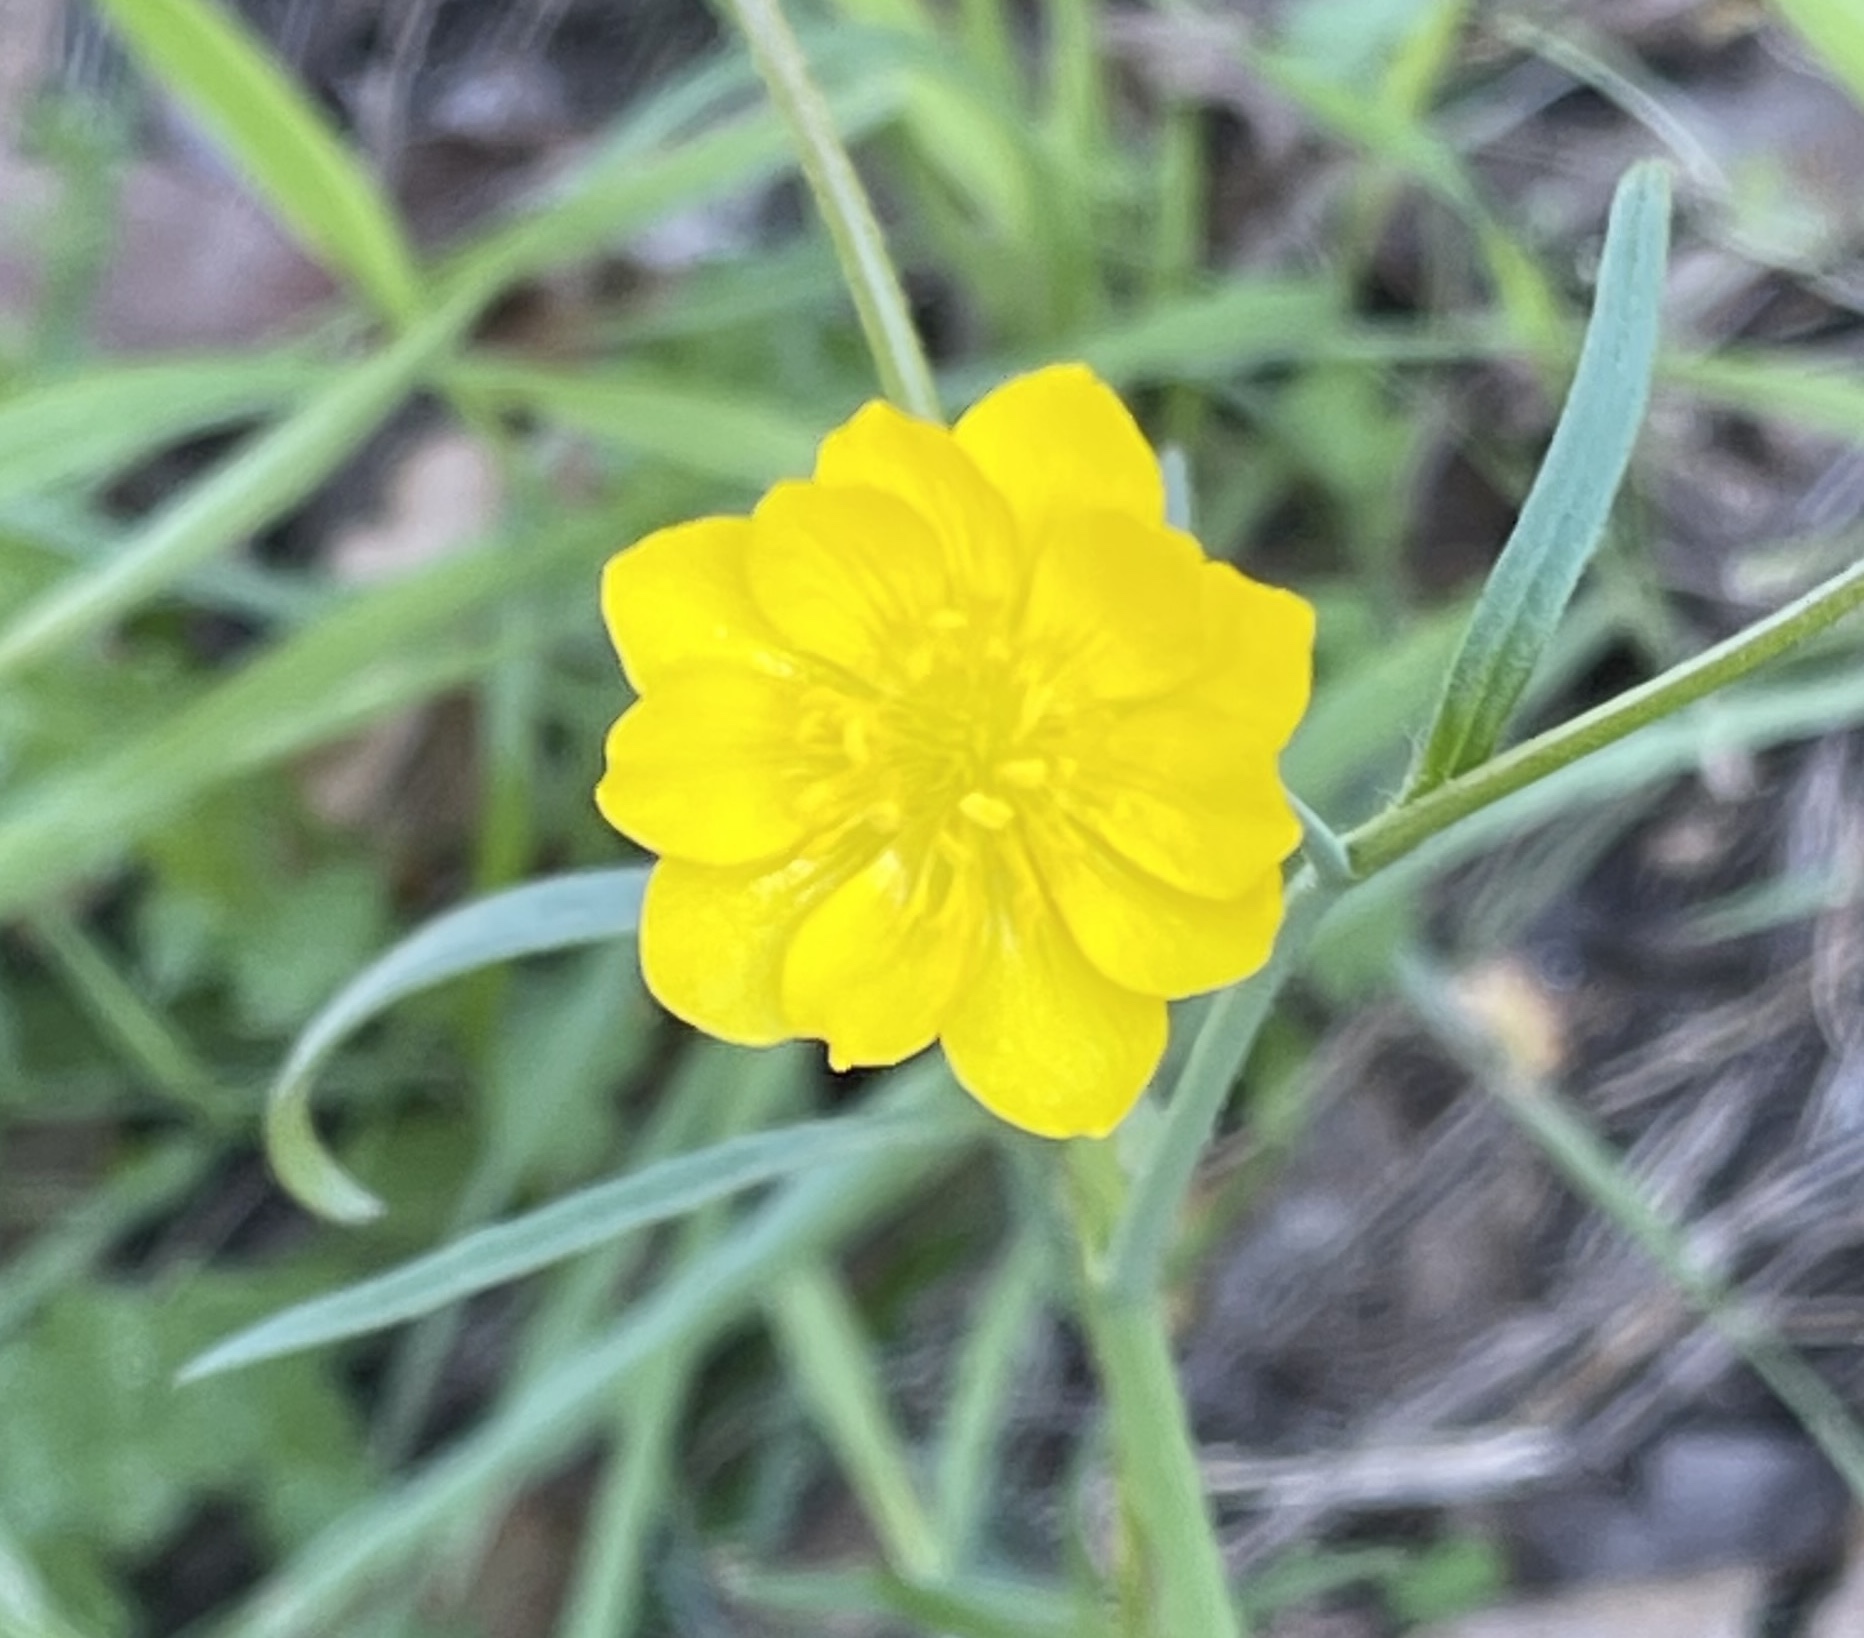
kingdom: Plantae
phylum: Tracheophyta
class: Magnoliopsida
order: Ranunculales
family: Ranunculaceae
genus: Ranunculus
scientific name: Ranunculus californicus
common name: California buttercup
